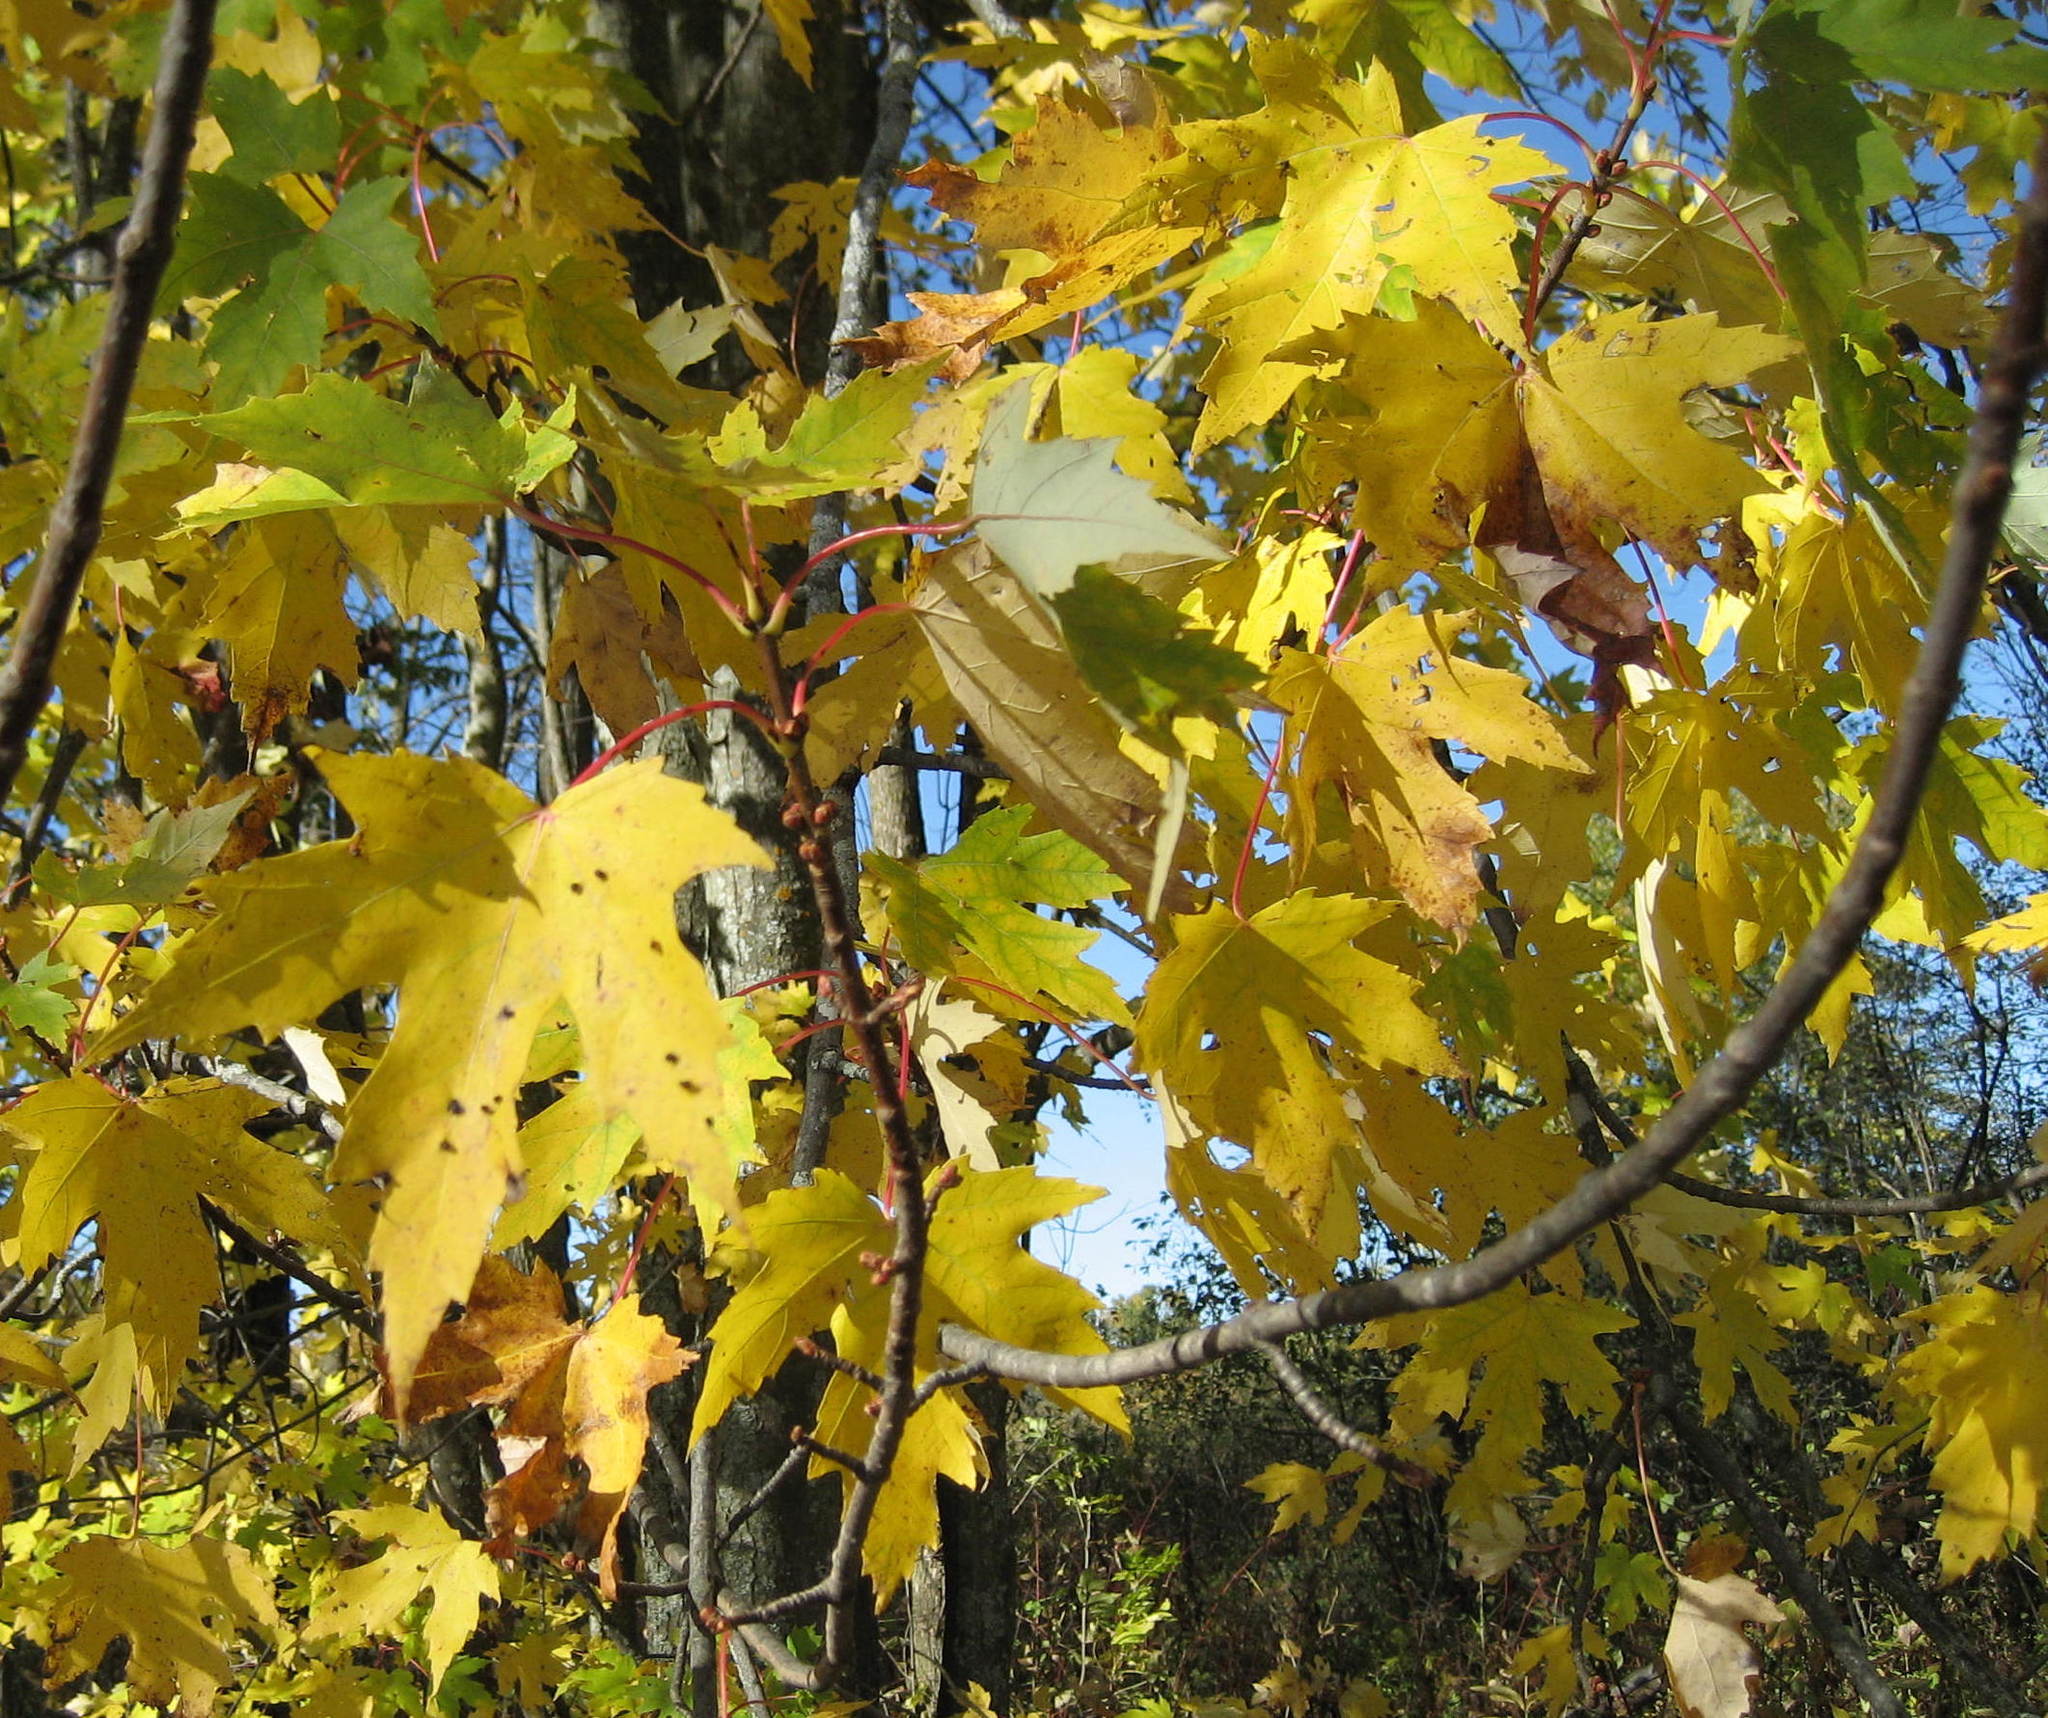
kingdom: Plantae
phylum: Tracheophyta
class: Magnoliopsida
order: Sapindales
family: Sapindaceae
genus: Acer
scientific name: Acer saccharinum
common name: Silver maple
